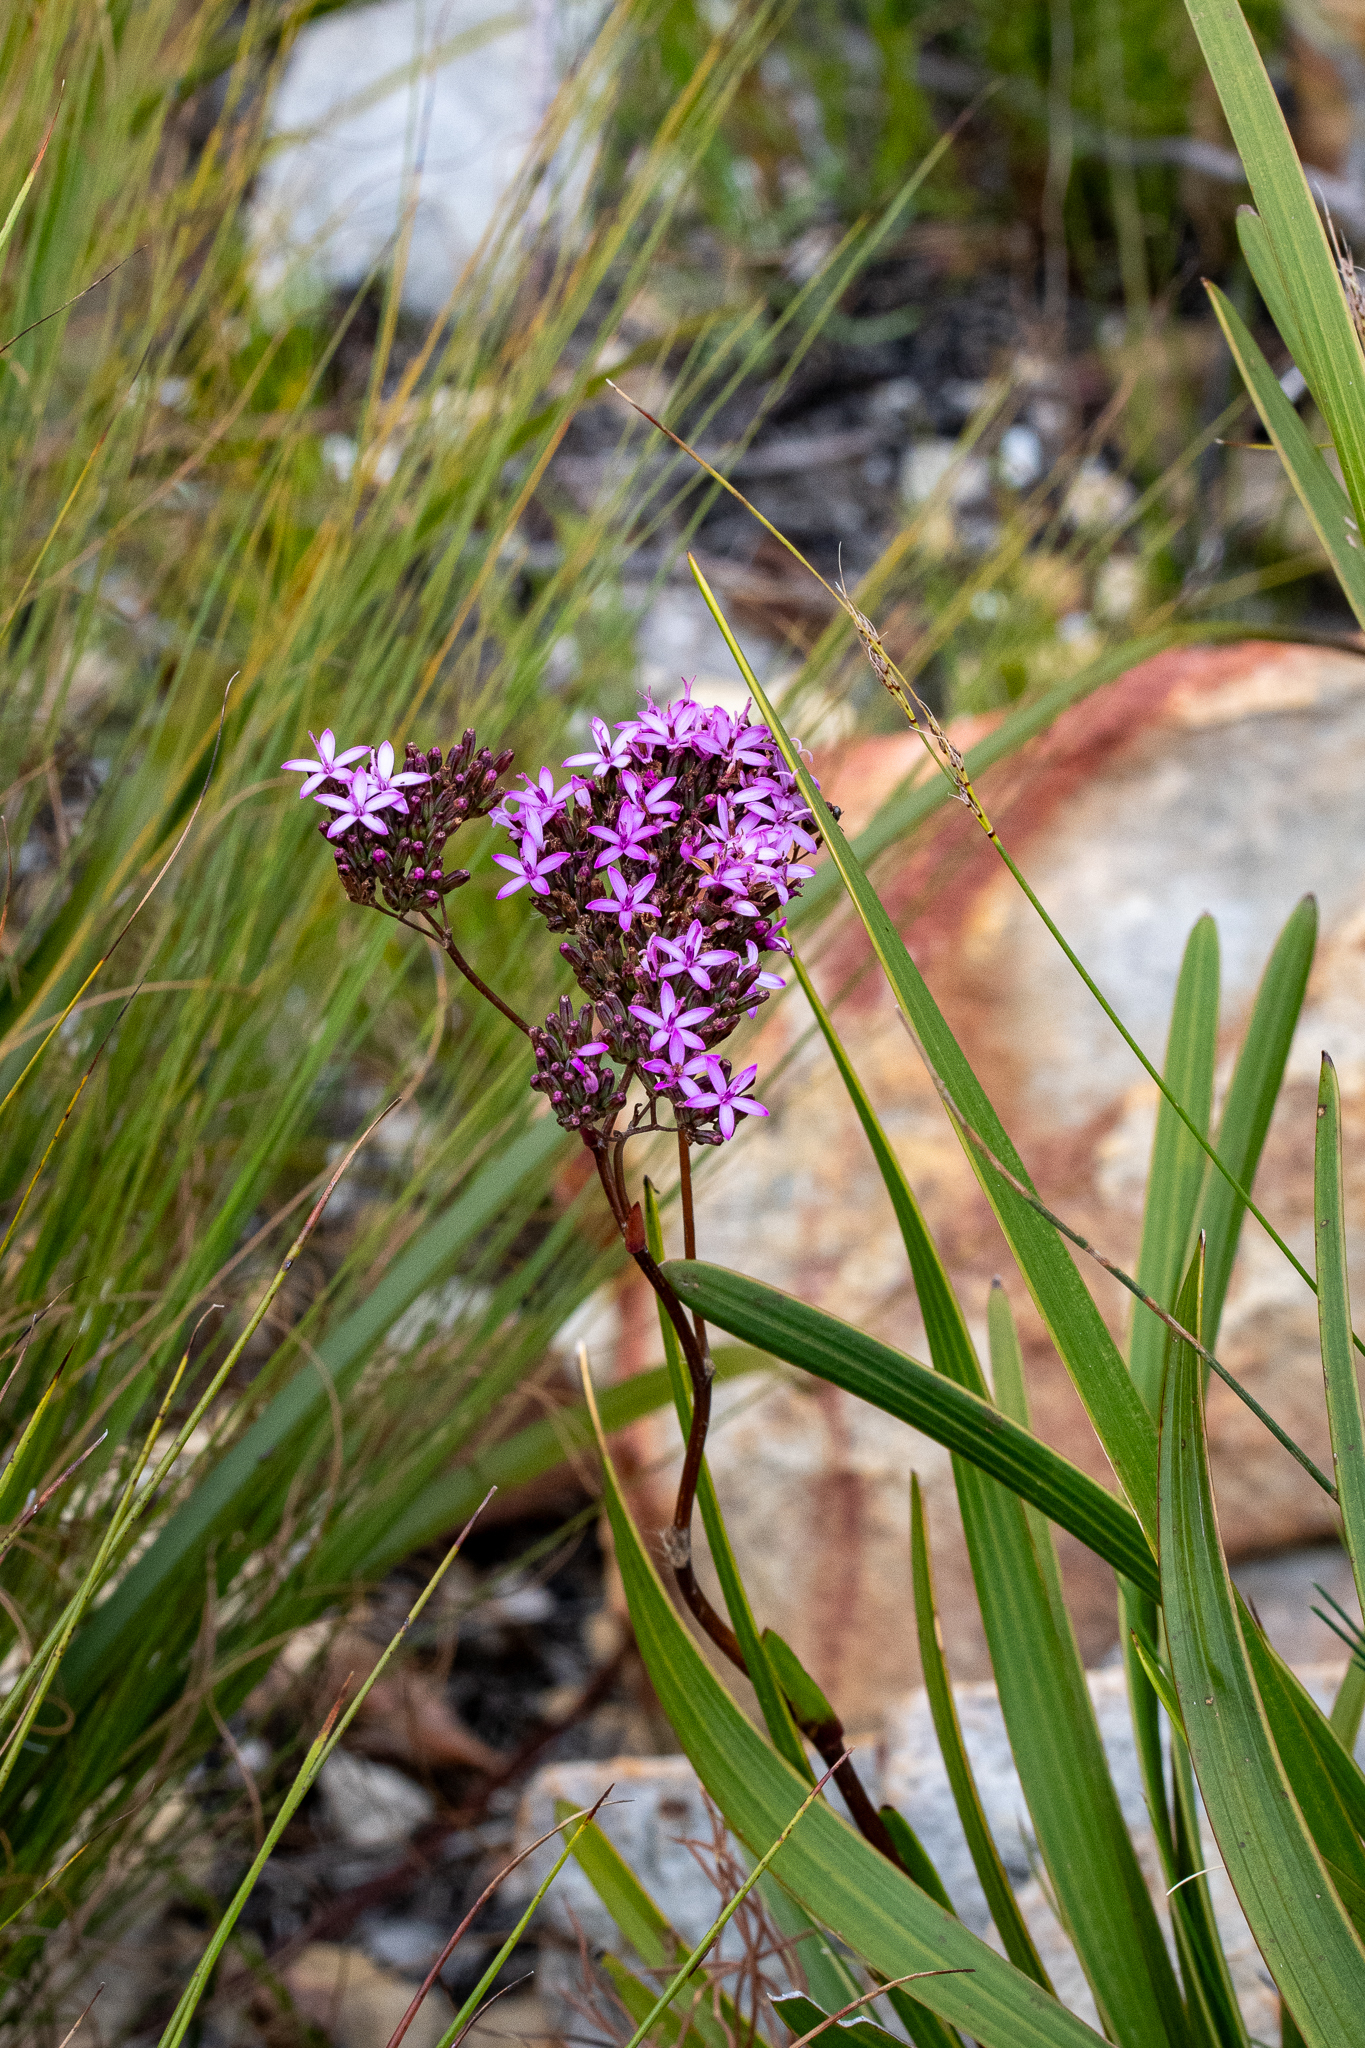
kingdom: Plantae
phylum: Tracheophyta
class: Magnoliopsida
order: Asterales
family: Asteraceae
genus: Corymbium
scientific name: Corymbium glabrum
